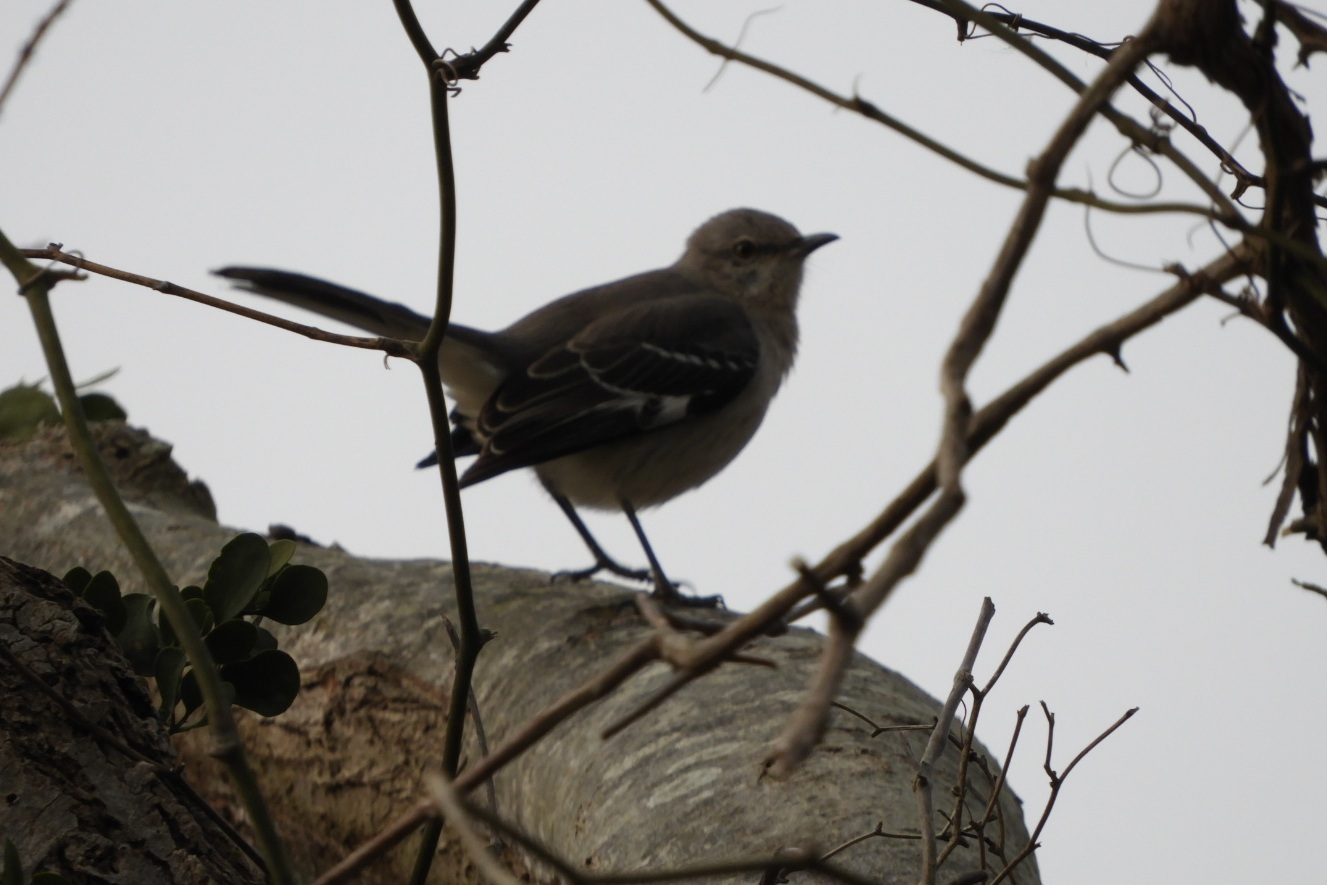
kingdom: Animalia
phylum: Chordata
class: Aves
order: Passeriformes
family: Mimidae
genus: Mimus
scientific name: Mimus polyglottos
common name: Northern mockingbird
